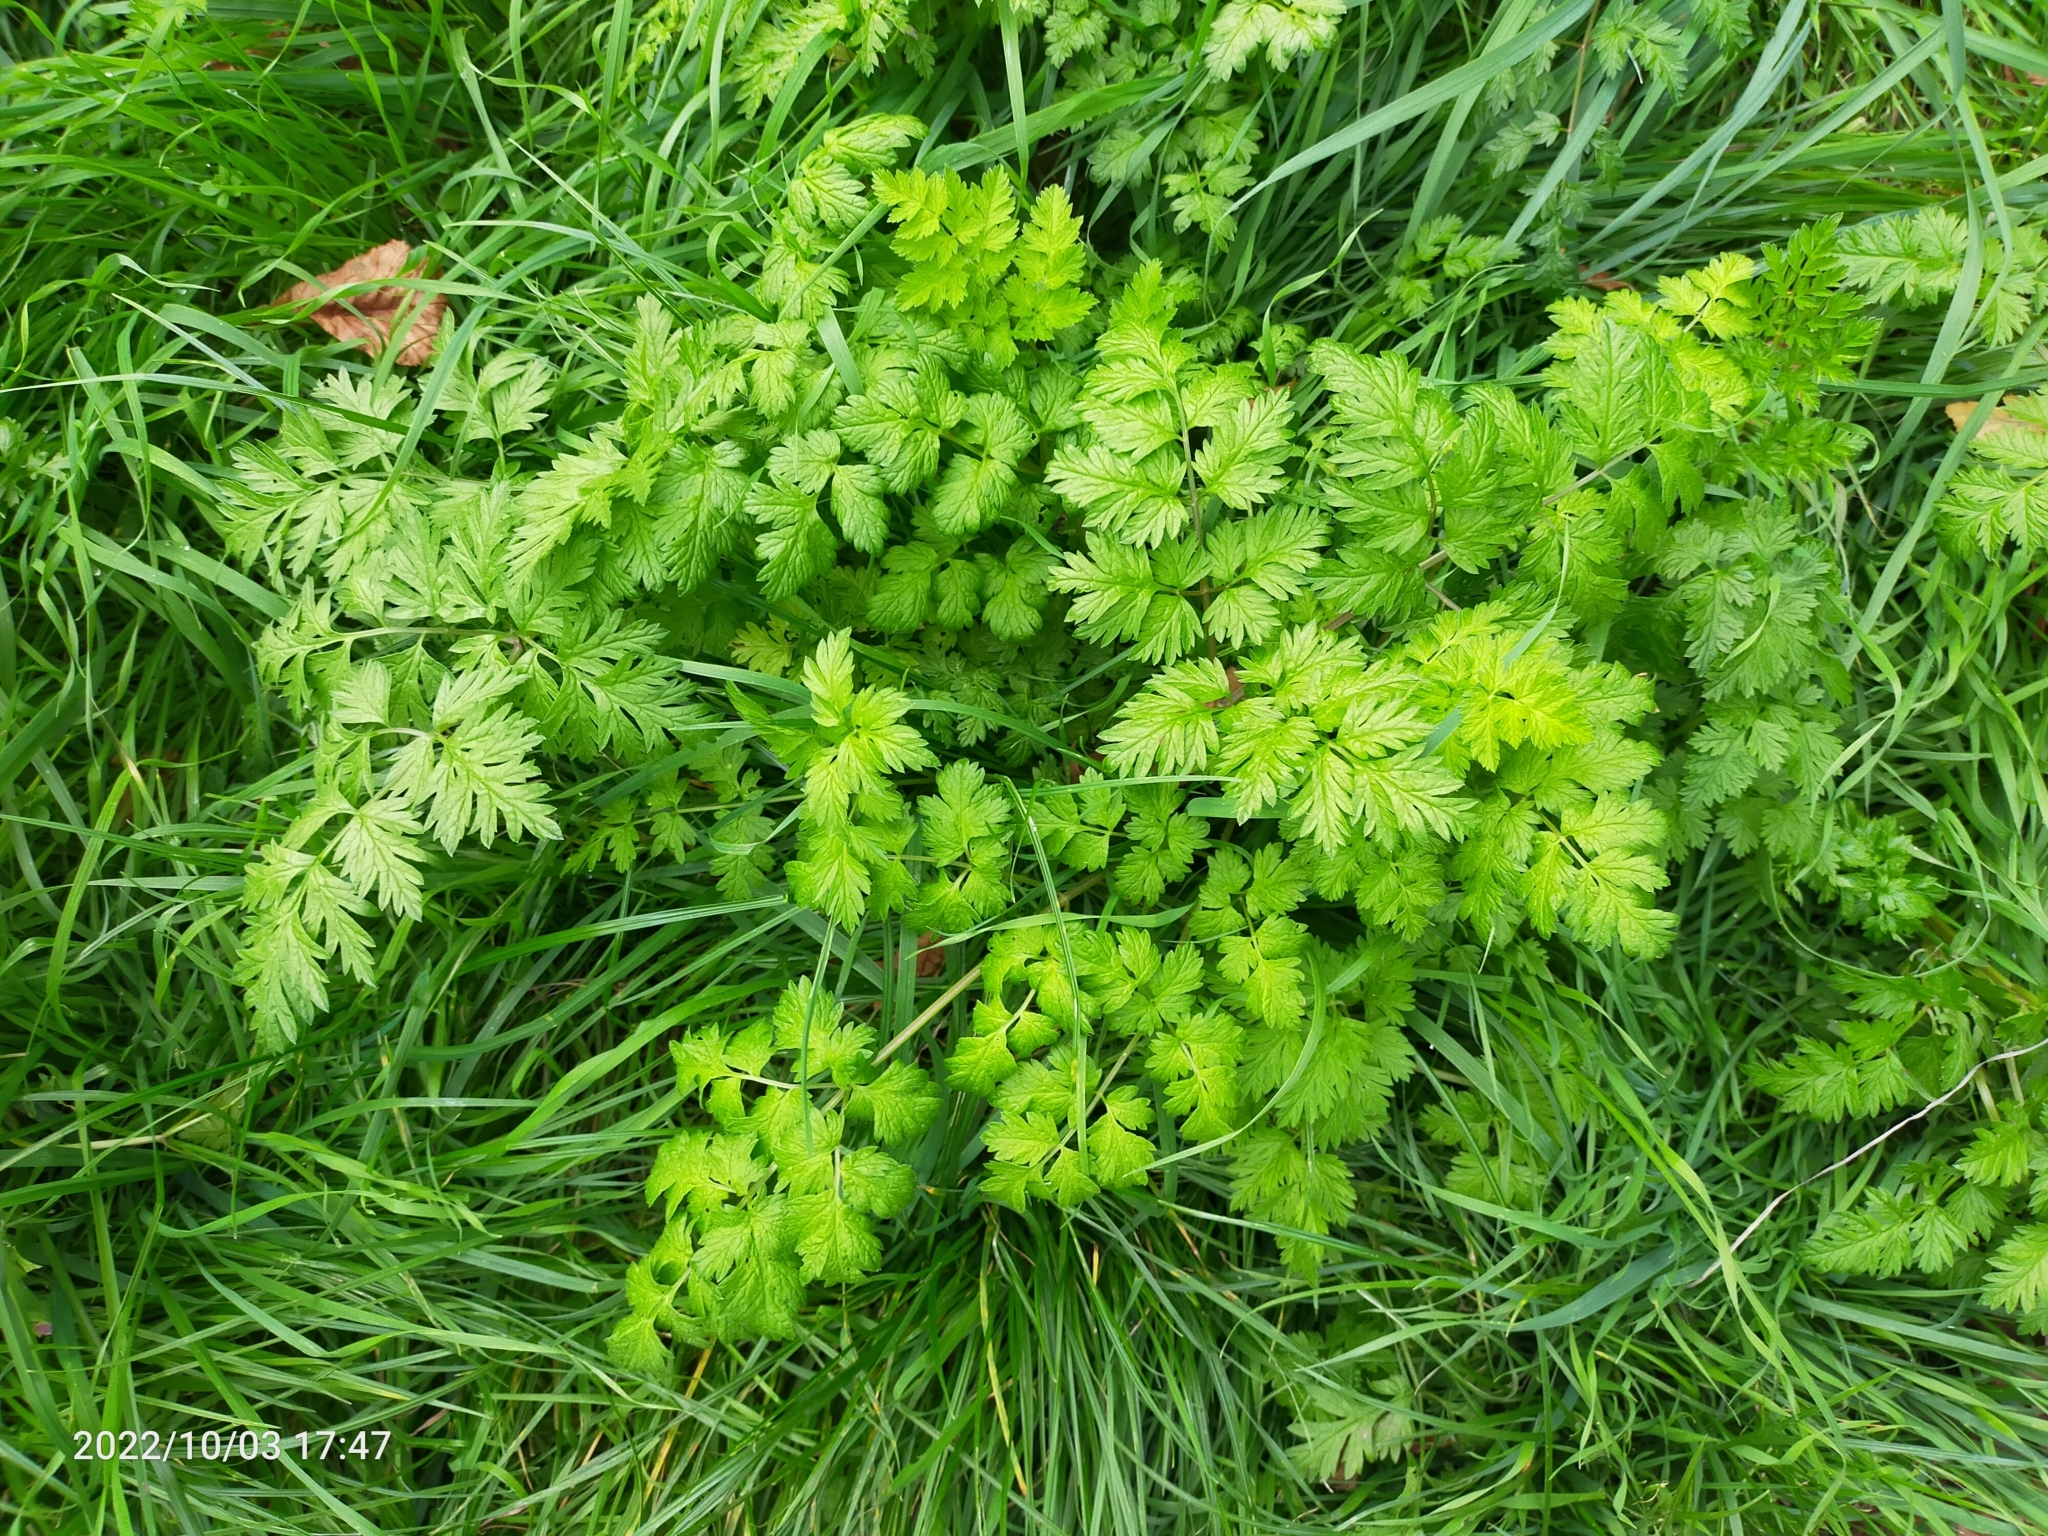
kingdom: Plantae
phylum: Tracheophyta
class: Magnoliopsida
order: Apiales
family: Apiaceae
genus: Anthriscus
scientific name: Anthriscus sylvestris
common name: Cow parsley
